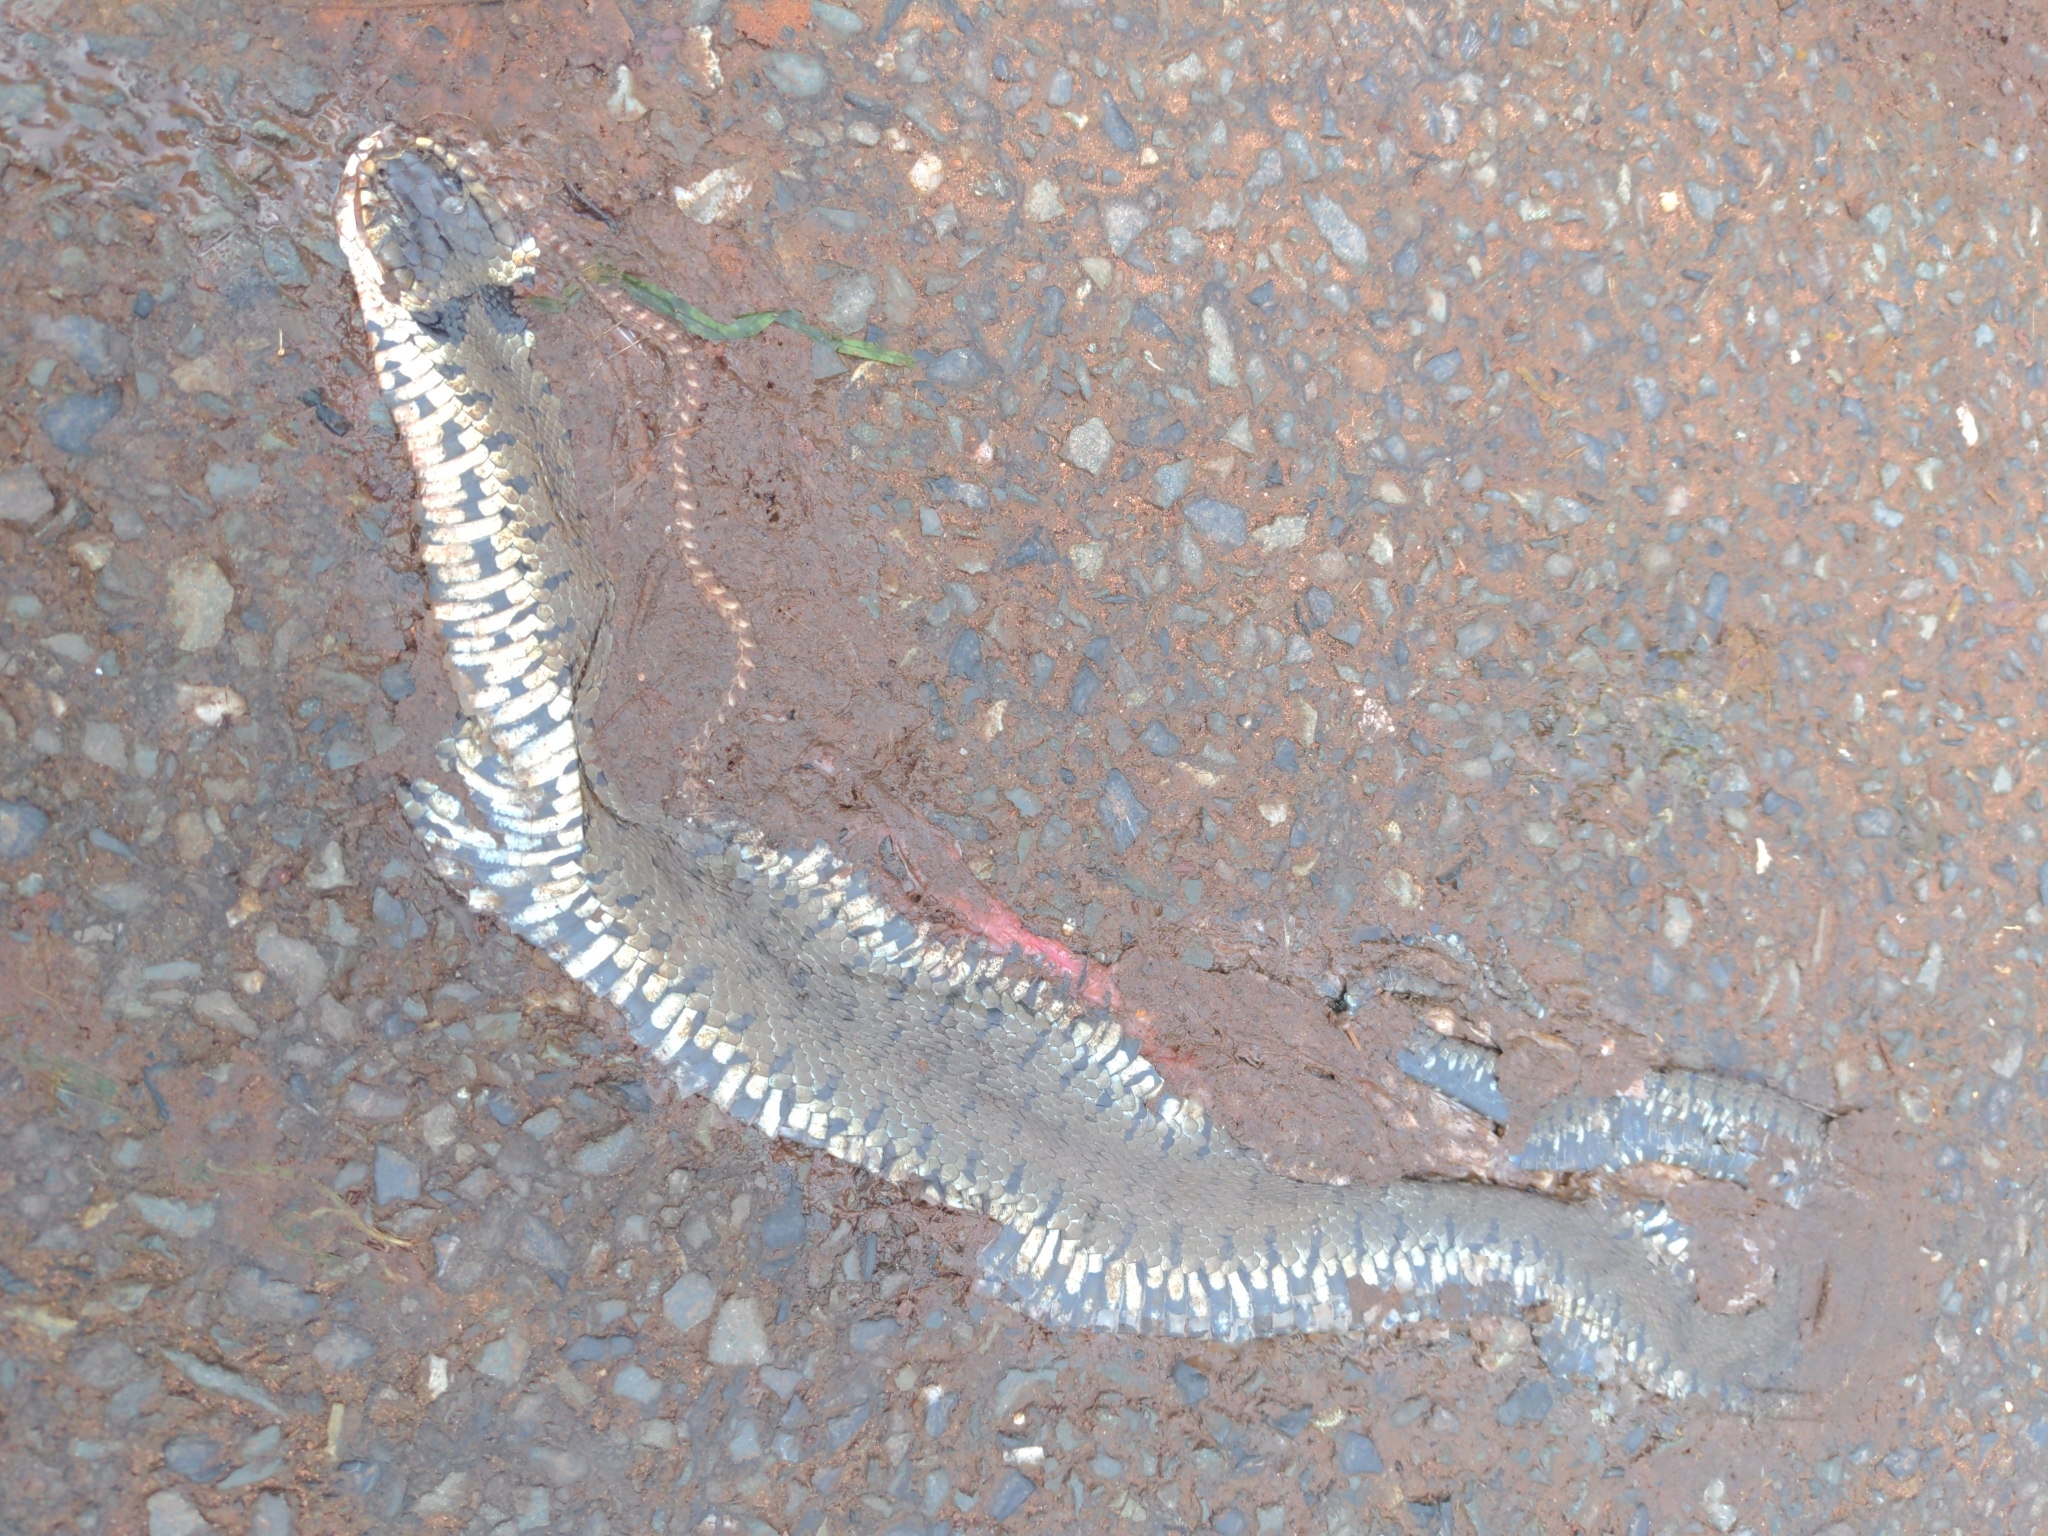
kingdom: Animalia
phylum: Chordata
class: Squamata
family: Colubridae
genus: Natrix
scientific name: Natrix helvetica
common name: Banded grass snake
